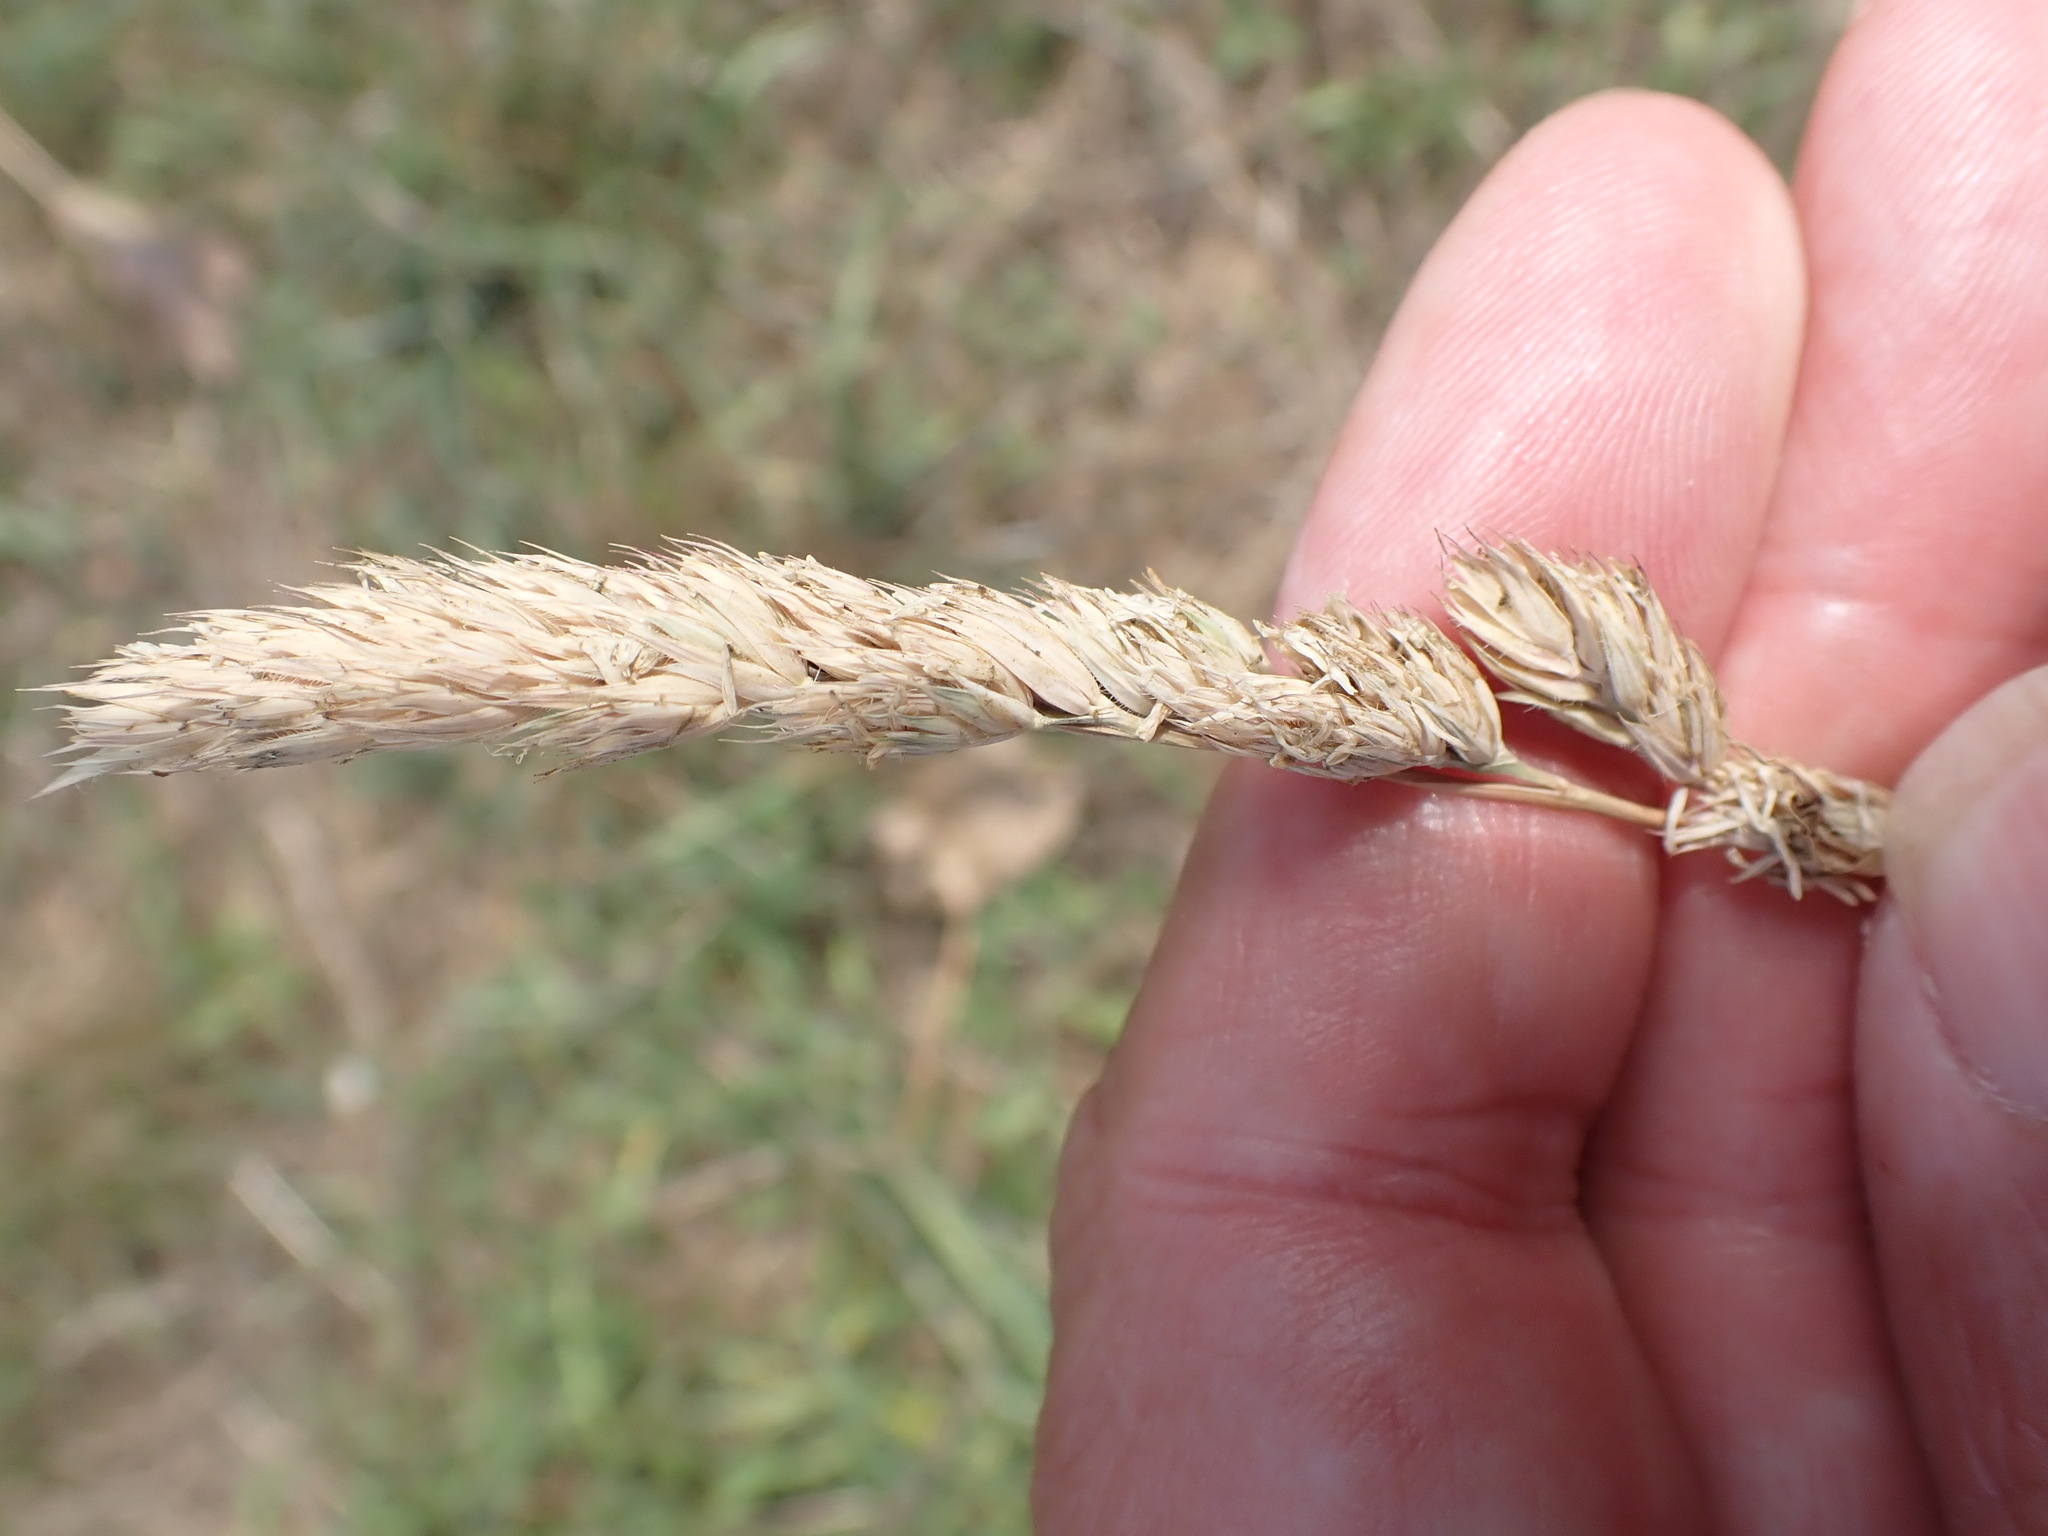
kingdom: Plantae
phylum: Tracheophyta
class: Liliopsida
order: Poales
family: Poaceae
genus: Dactylis
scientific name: Dactylis glomerata
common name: Orchardgrass
